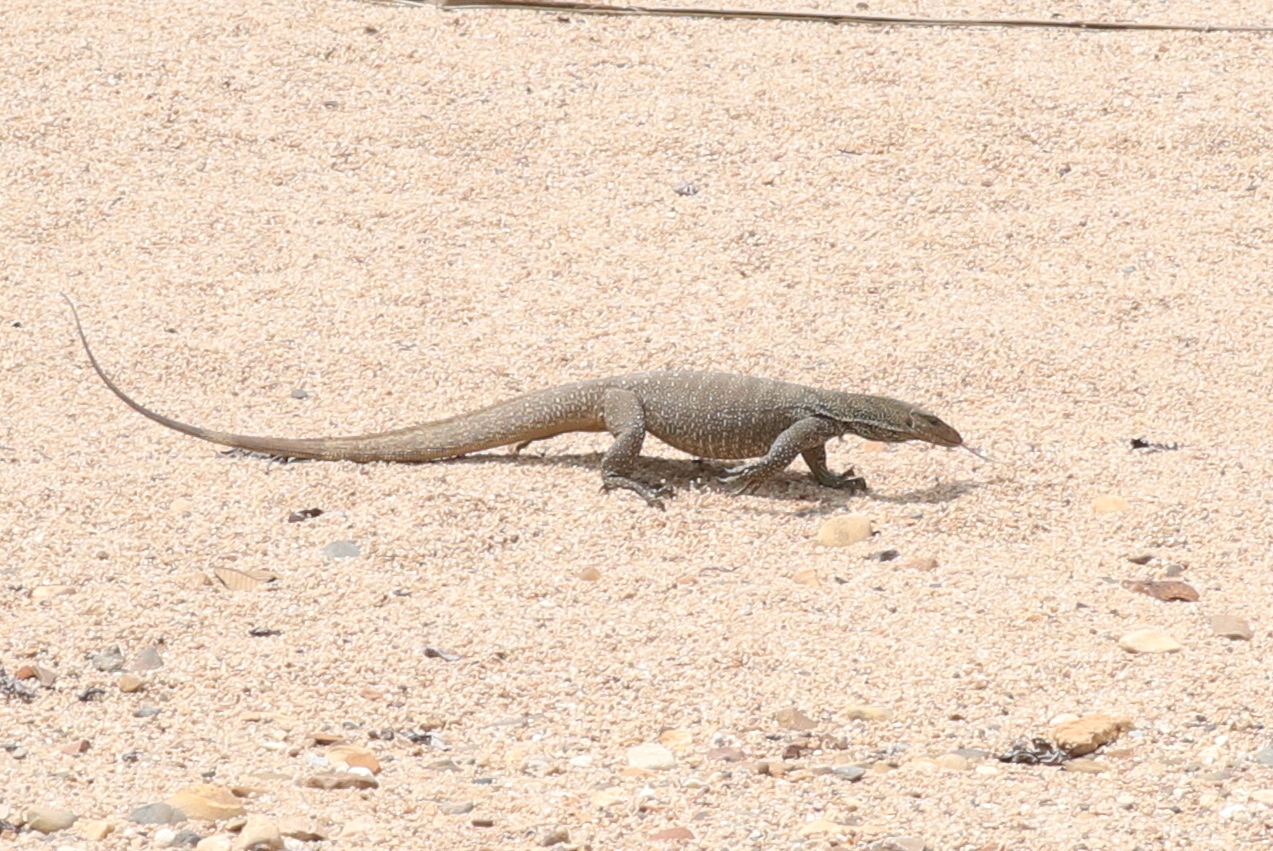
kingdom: Animalia
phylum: Chordata
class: Squamata
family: Varanidae
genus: Varanus
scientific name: Varanus nebulosus
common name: Clouded monitor
